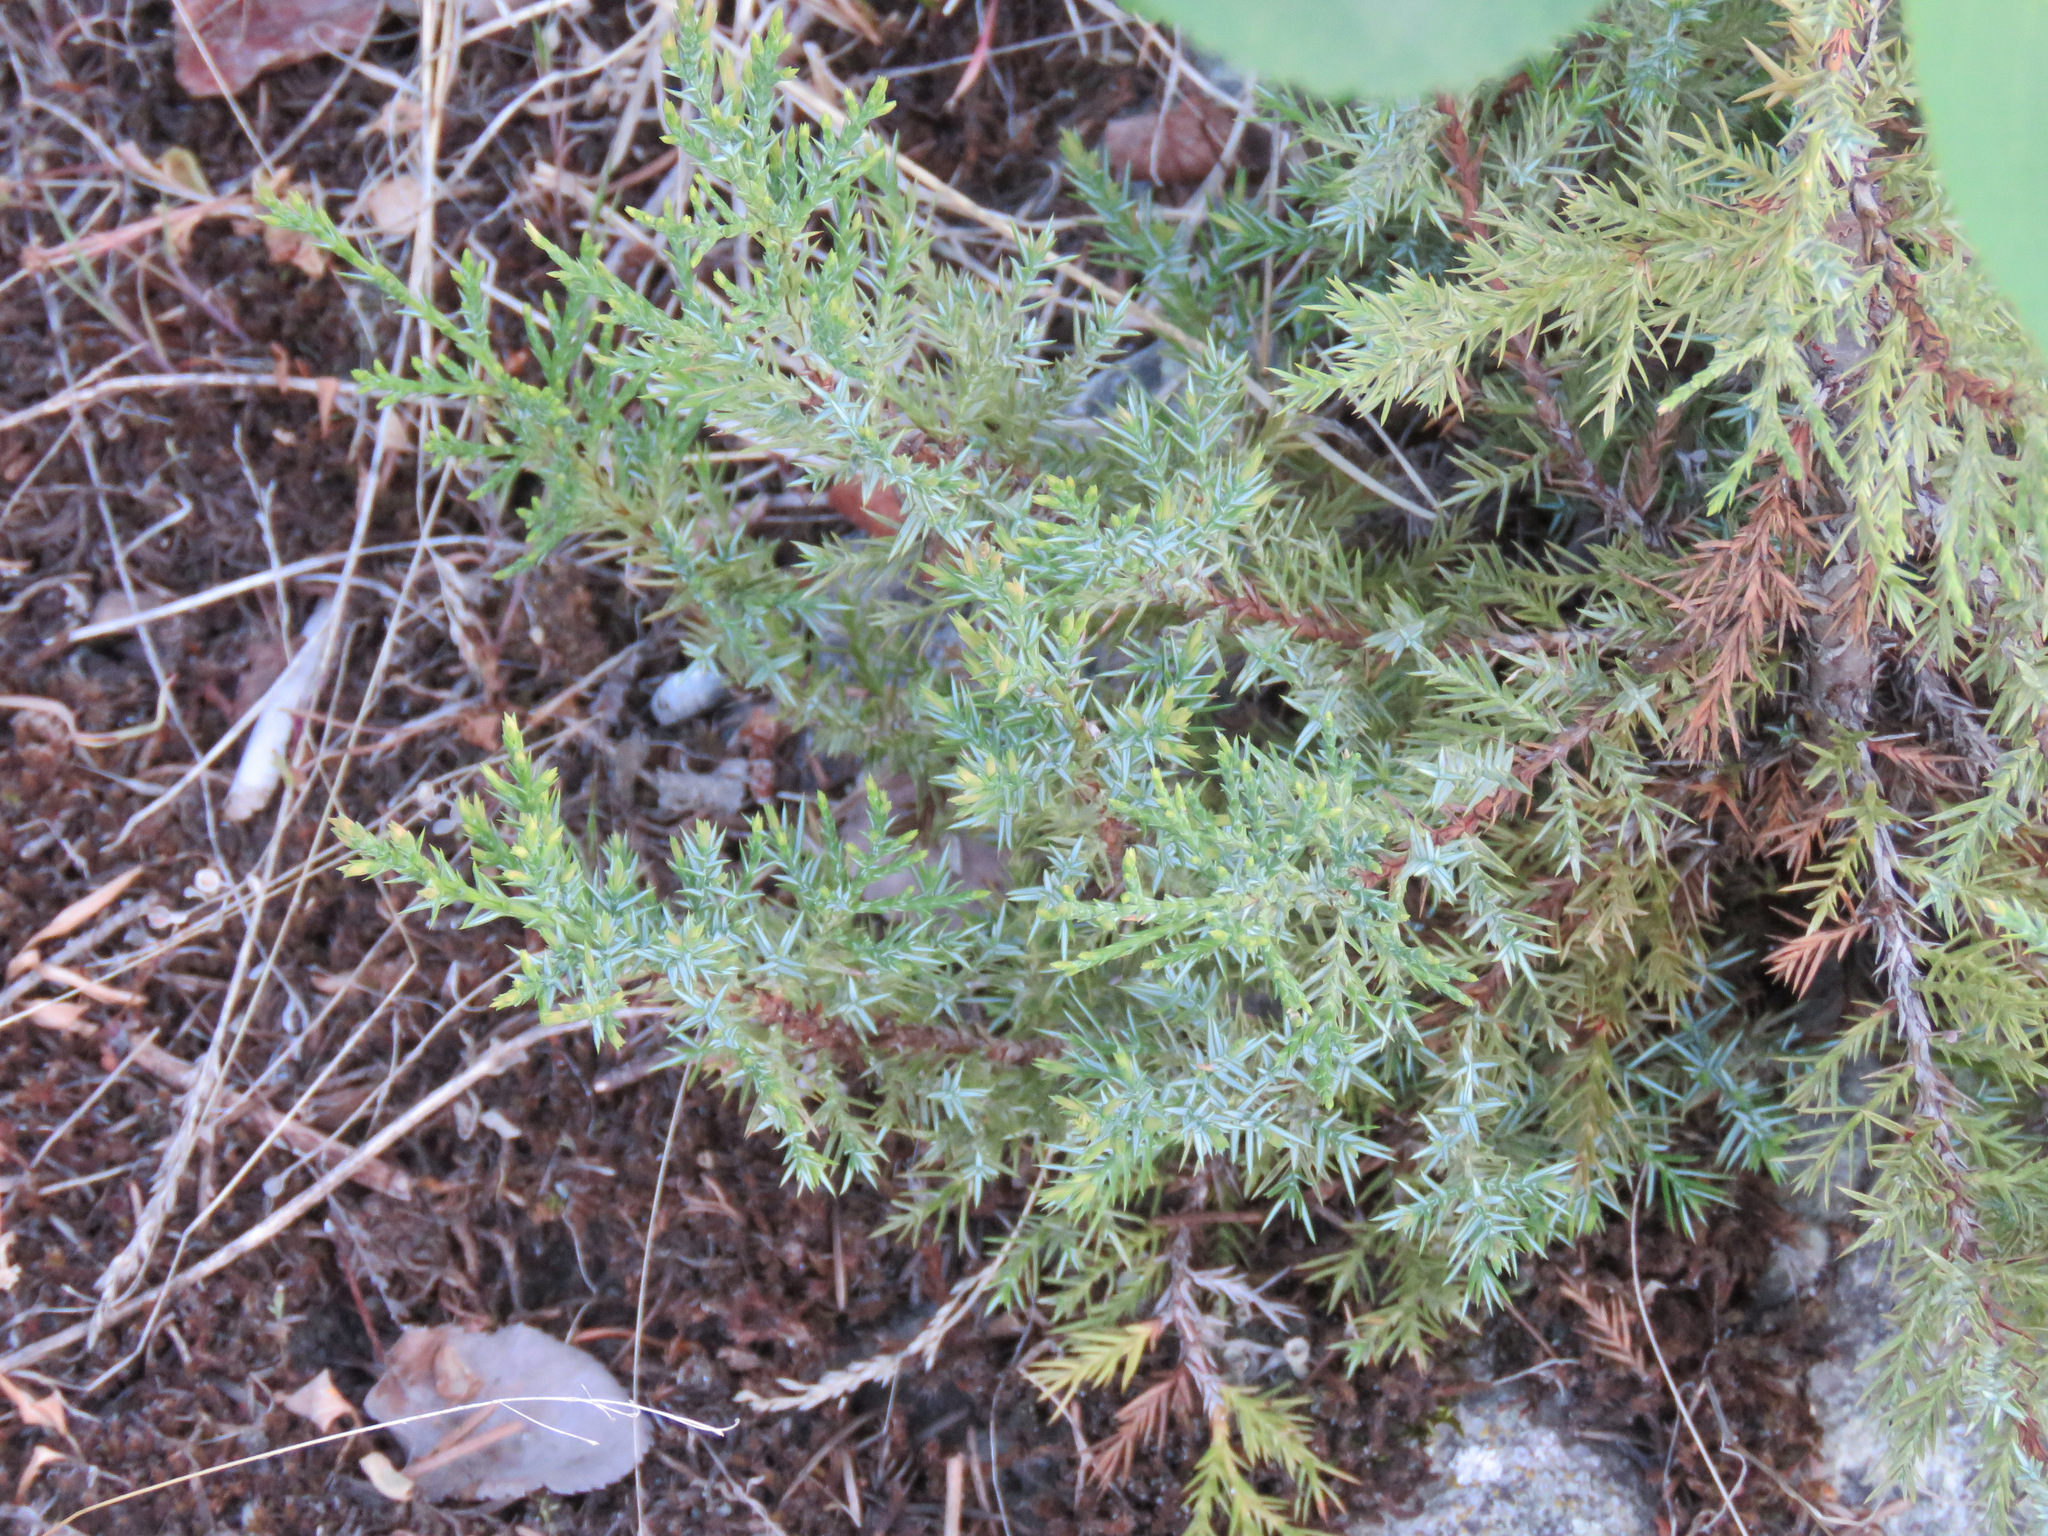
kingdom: Plantae
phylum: Tracheophyta
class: Pinopsida
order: Pinales
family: Cupressaceae
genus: Juniperus
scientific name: Juniperus communis
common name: Common juniper
